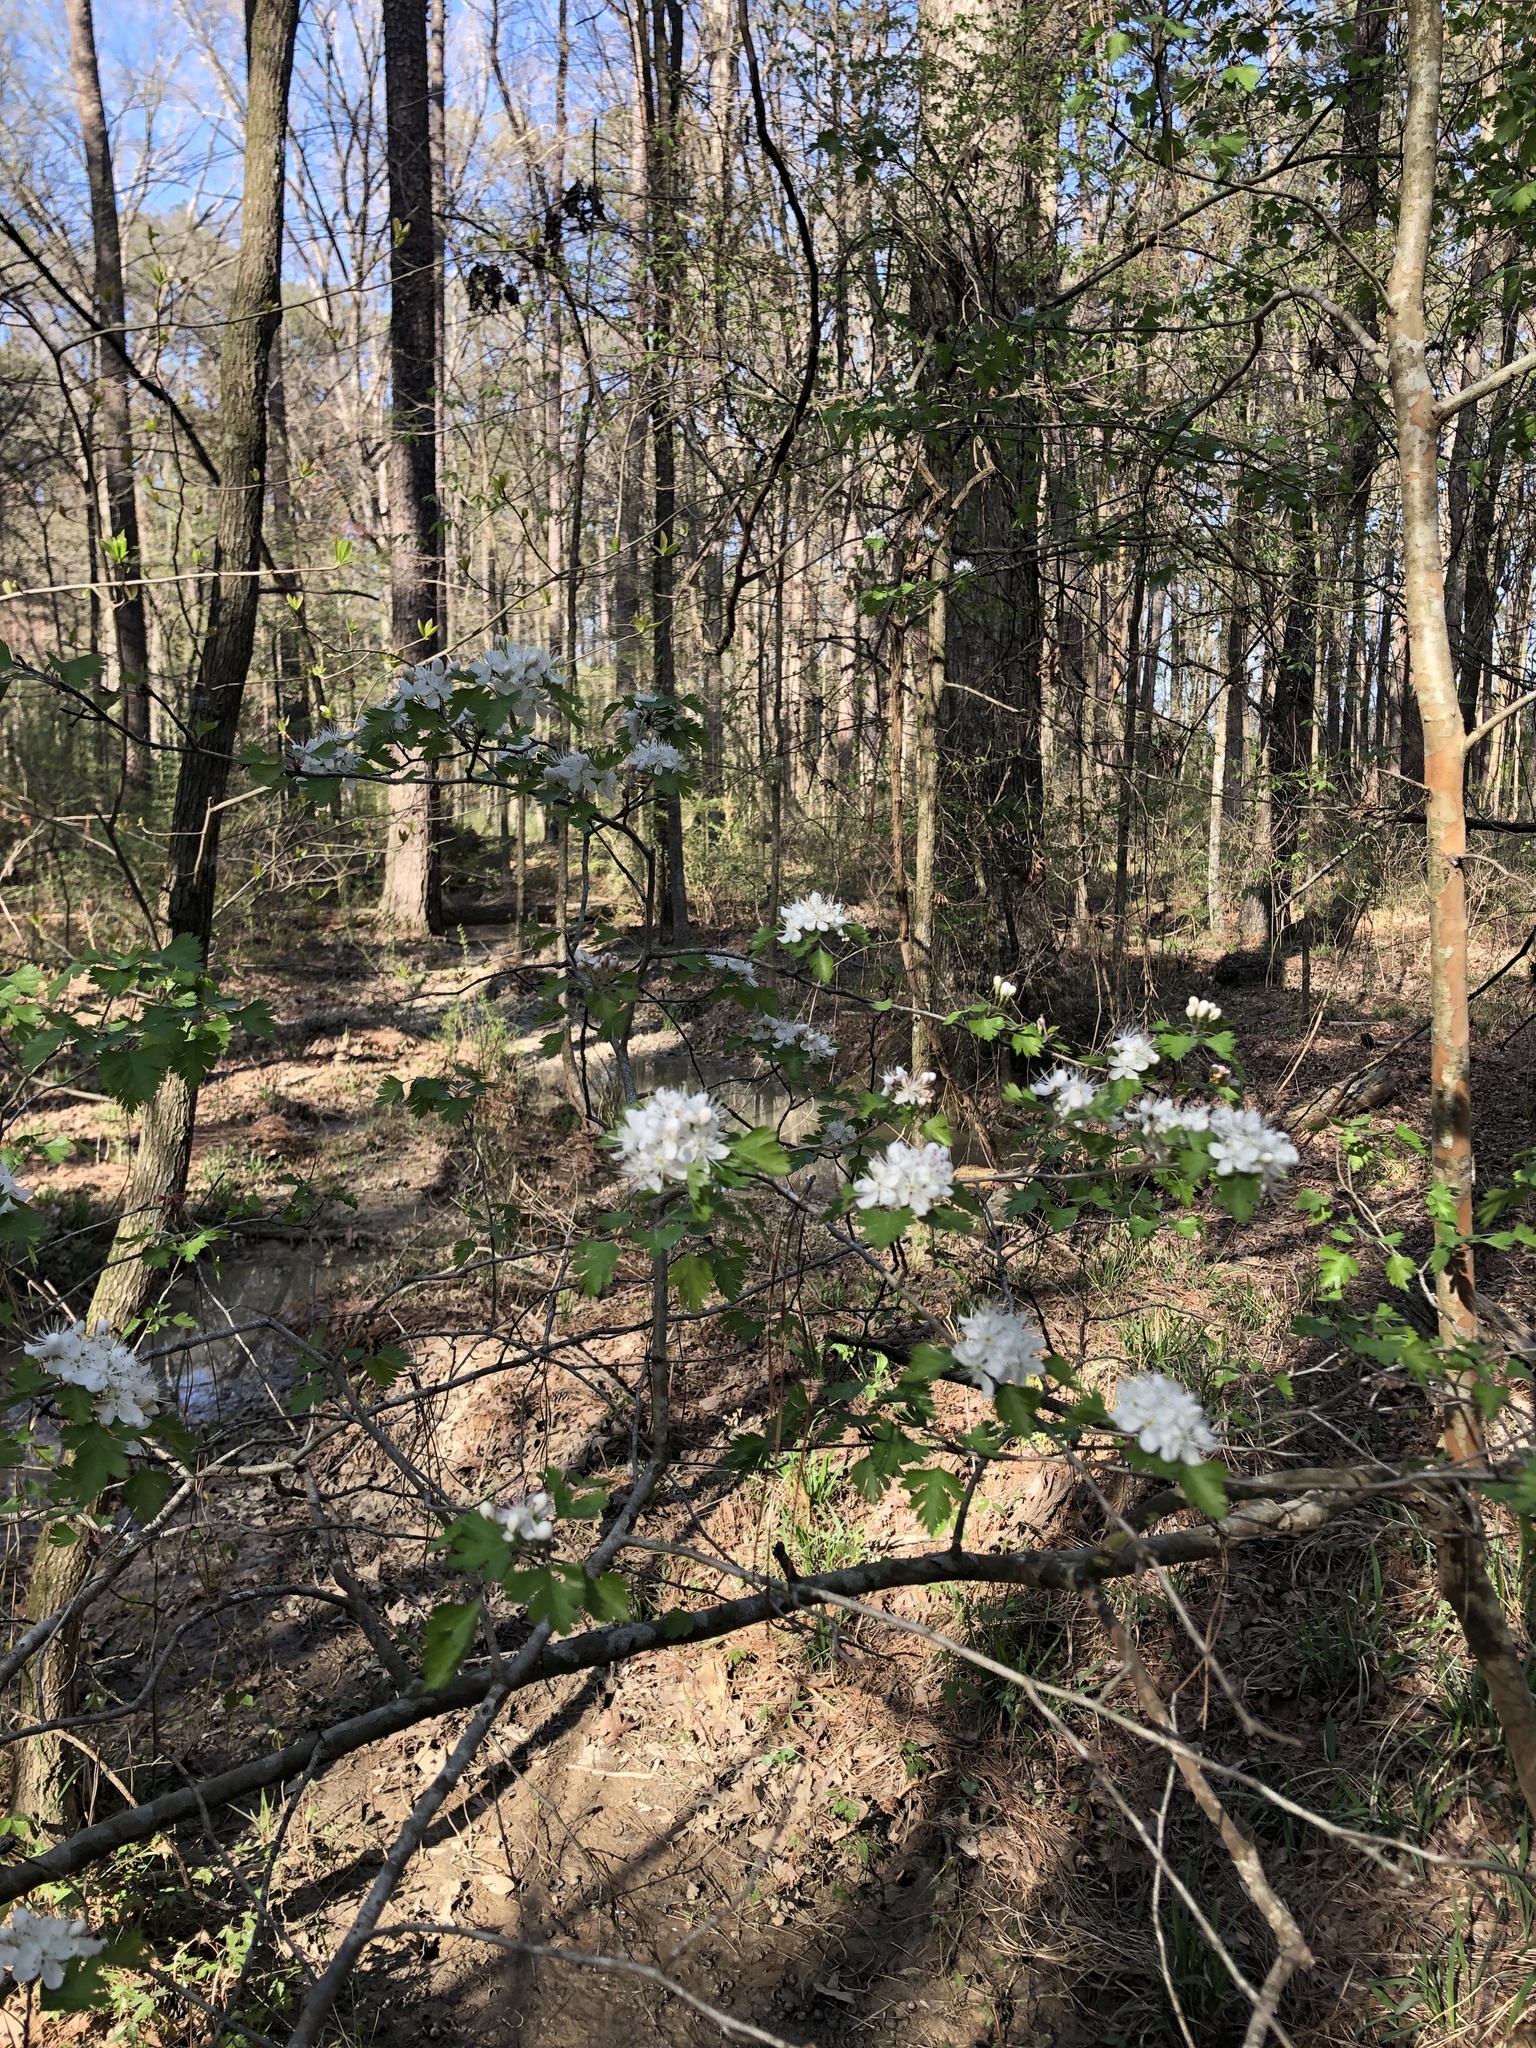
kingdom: Plantae
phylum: Tracheophyta
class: Magnoliopsida
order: Rosales
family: Rosaceae
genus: Crataegus
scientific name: Crataegus marshallii
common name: Parsley-hawthorn
